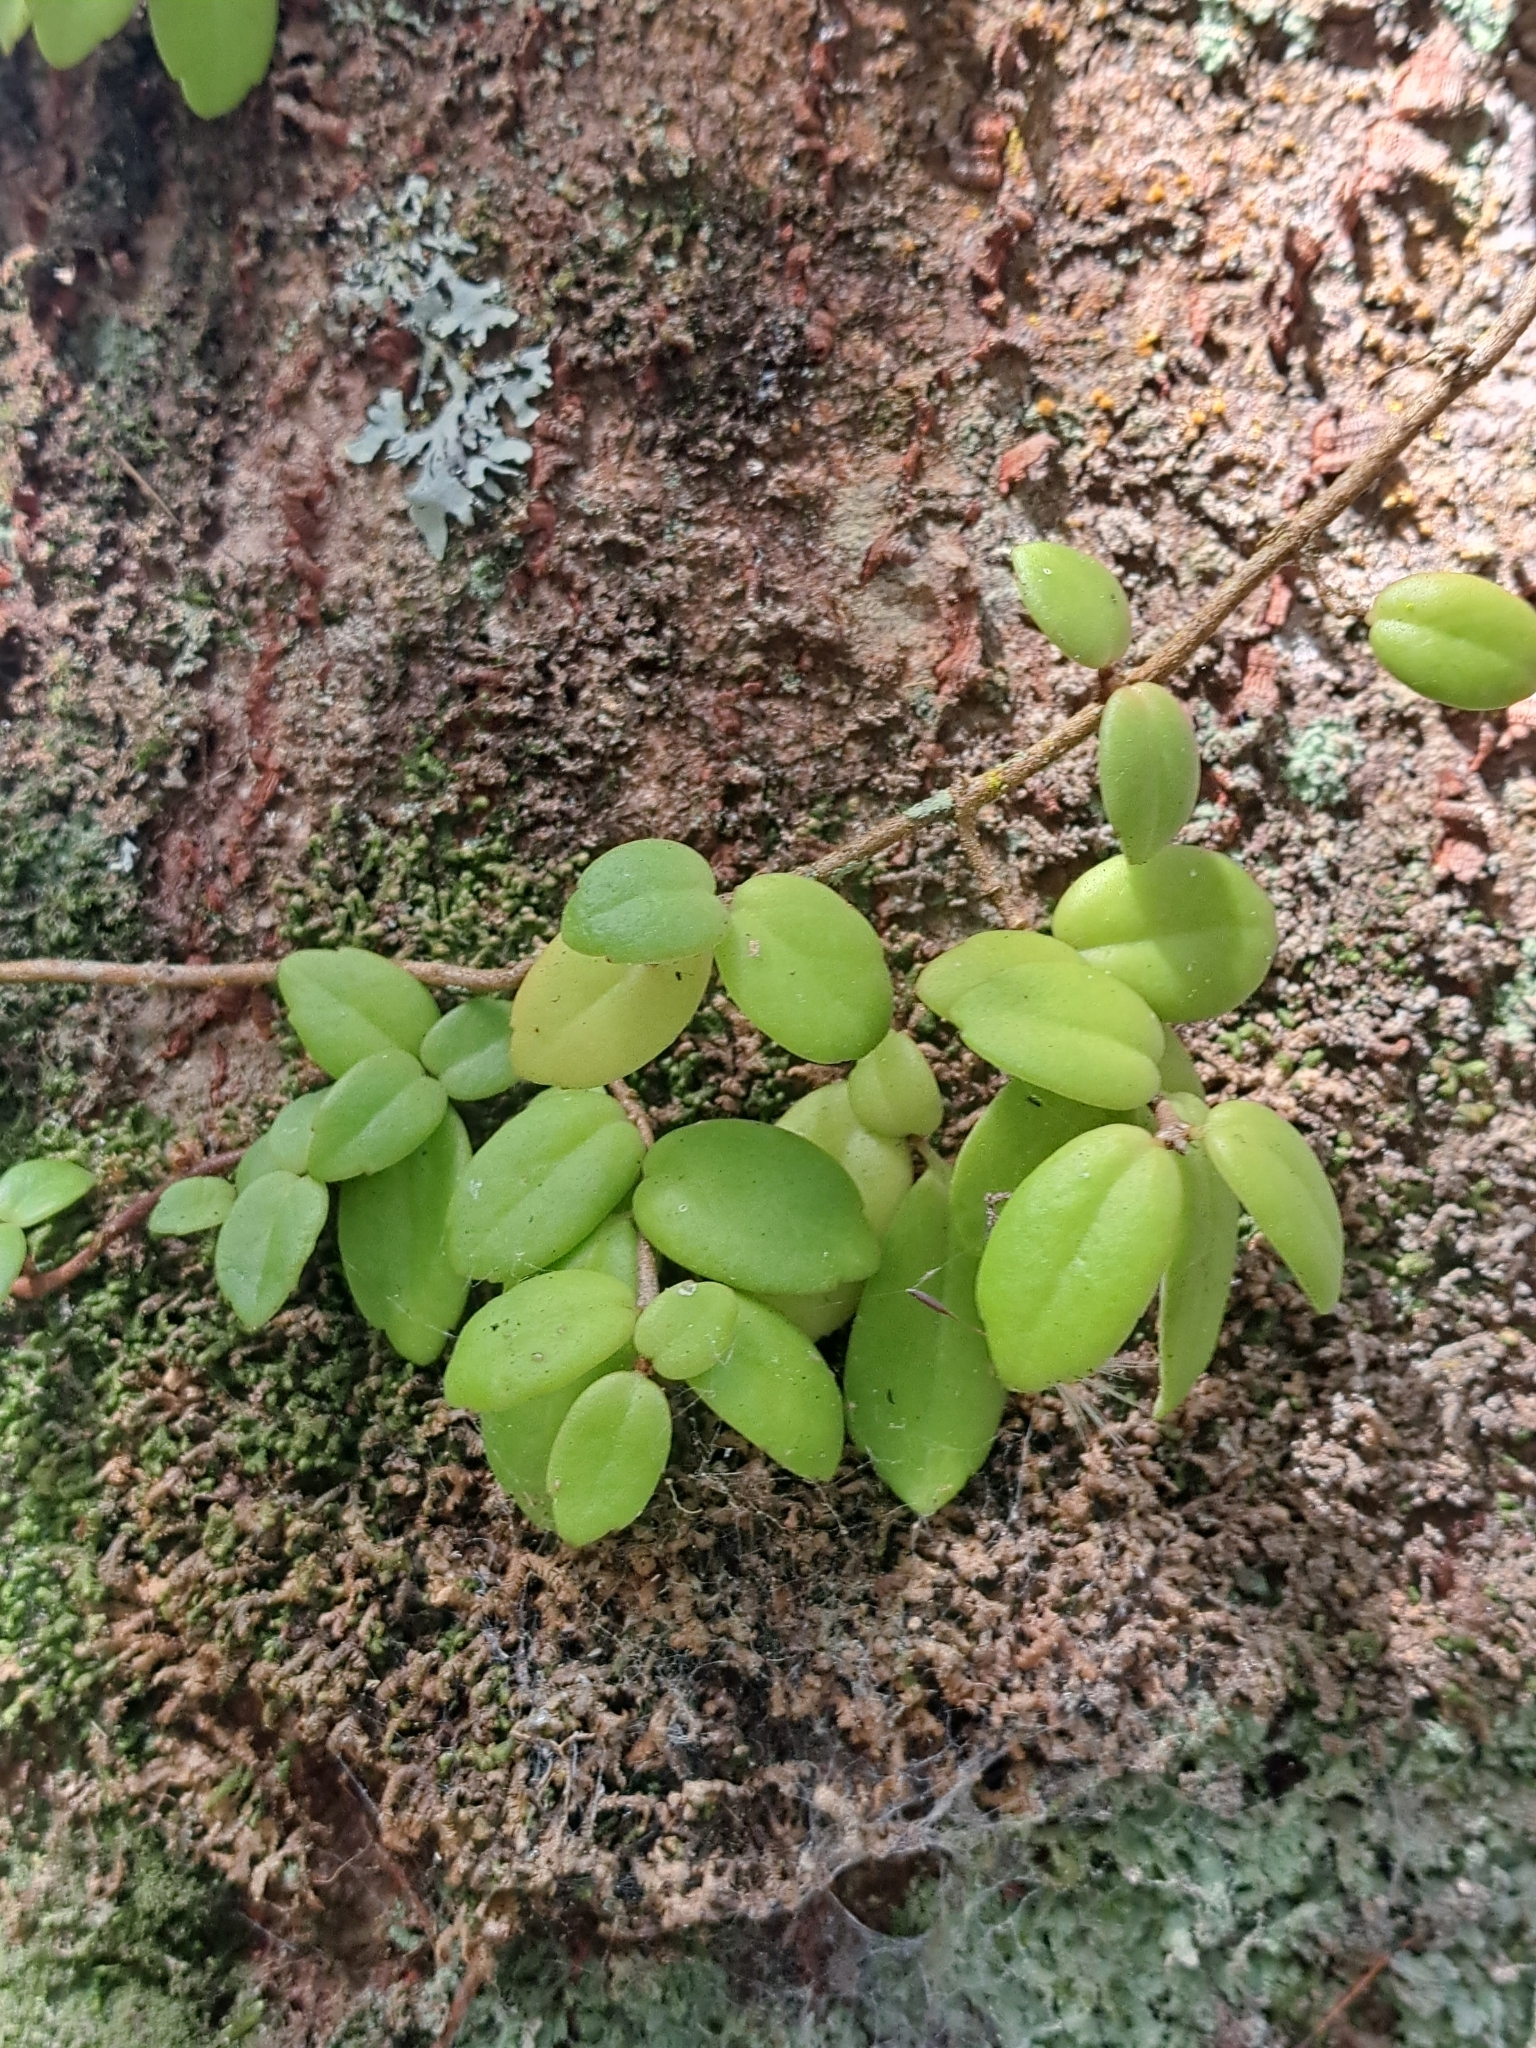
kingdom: Plantae
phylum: Tracheophyta
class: Magnoliopsida
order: Lamiales
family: Gesneriaceae
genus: Sarmienta
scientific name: Sarmienta scandens
